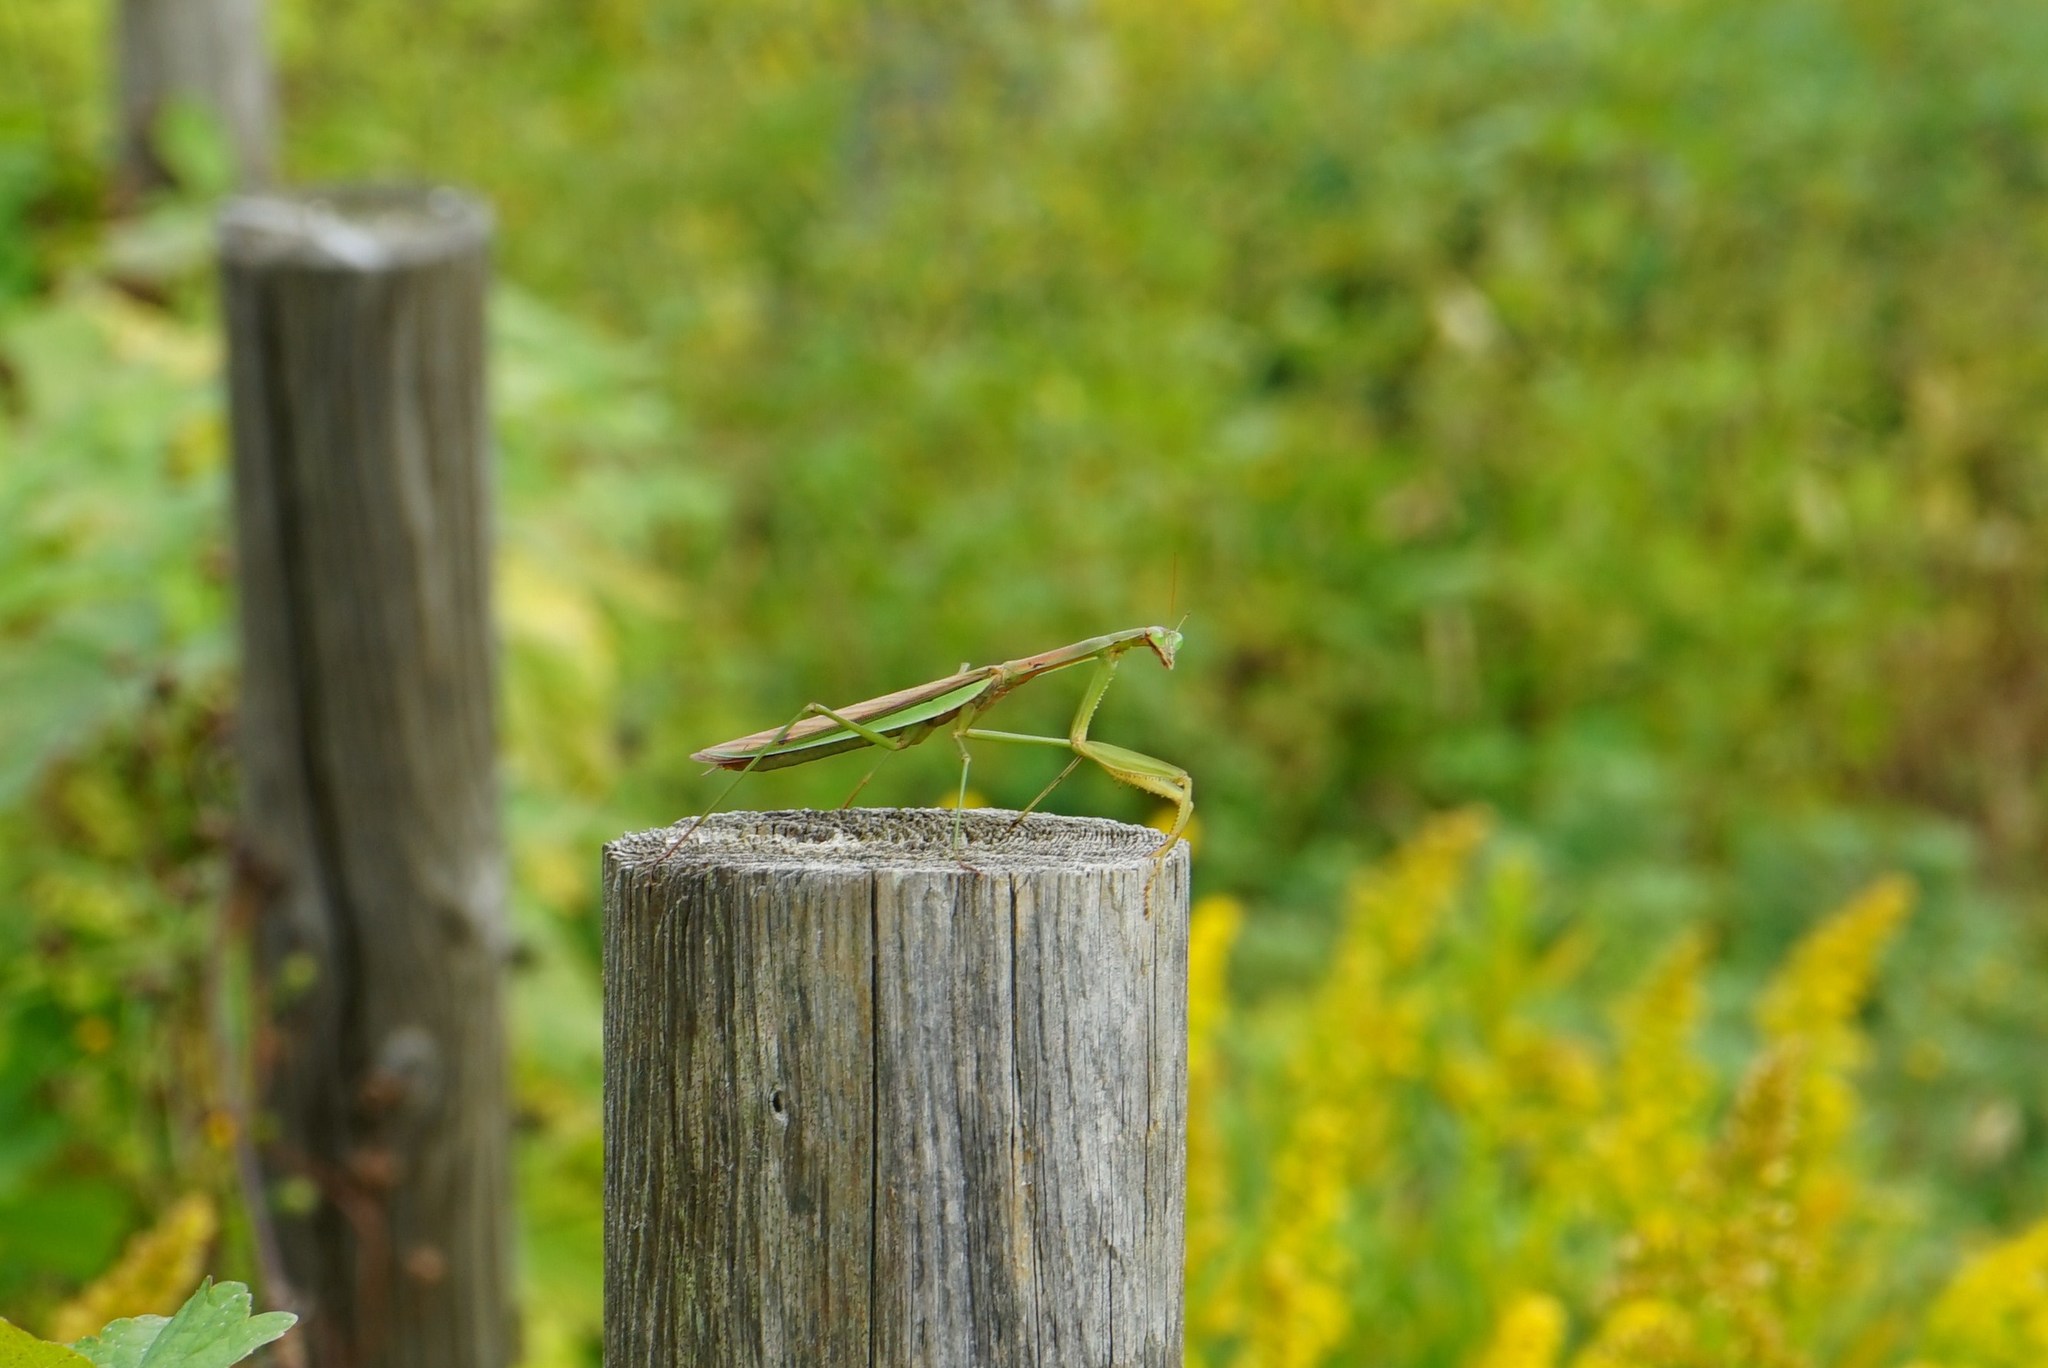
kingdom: Animalia
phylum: Arthropoda
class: Insecta
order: Mantodea
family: Mantidae
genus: Tenodera
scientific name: Tenodera sinensis
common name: Chinese mantis
